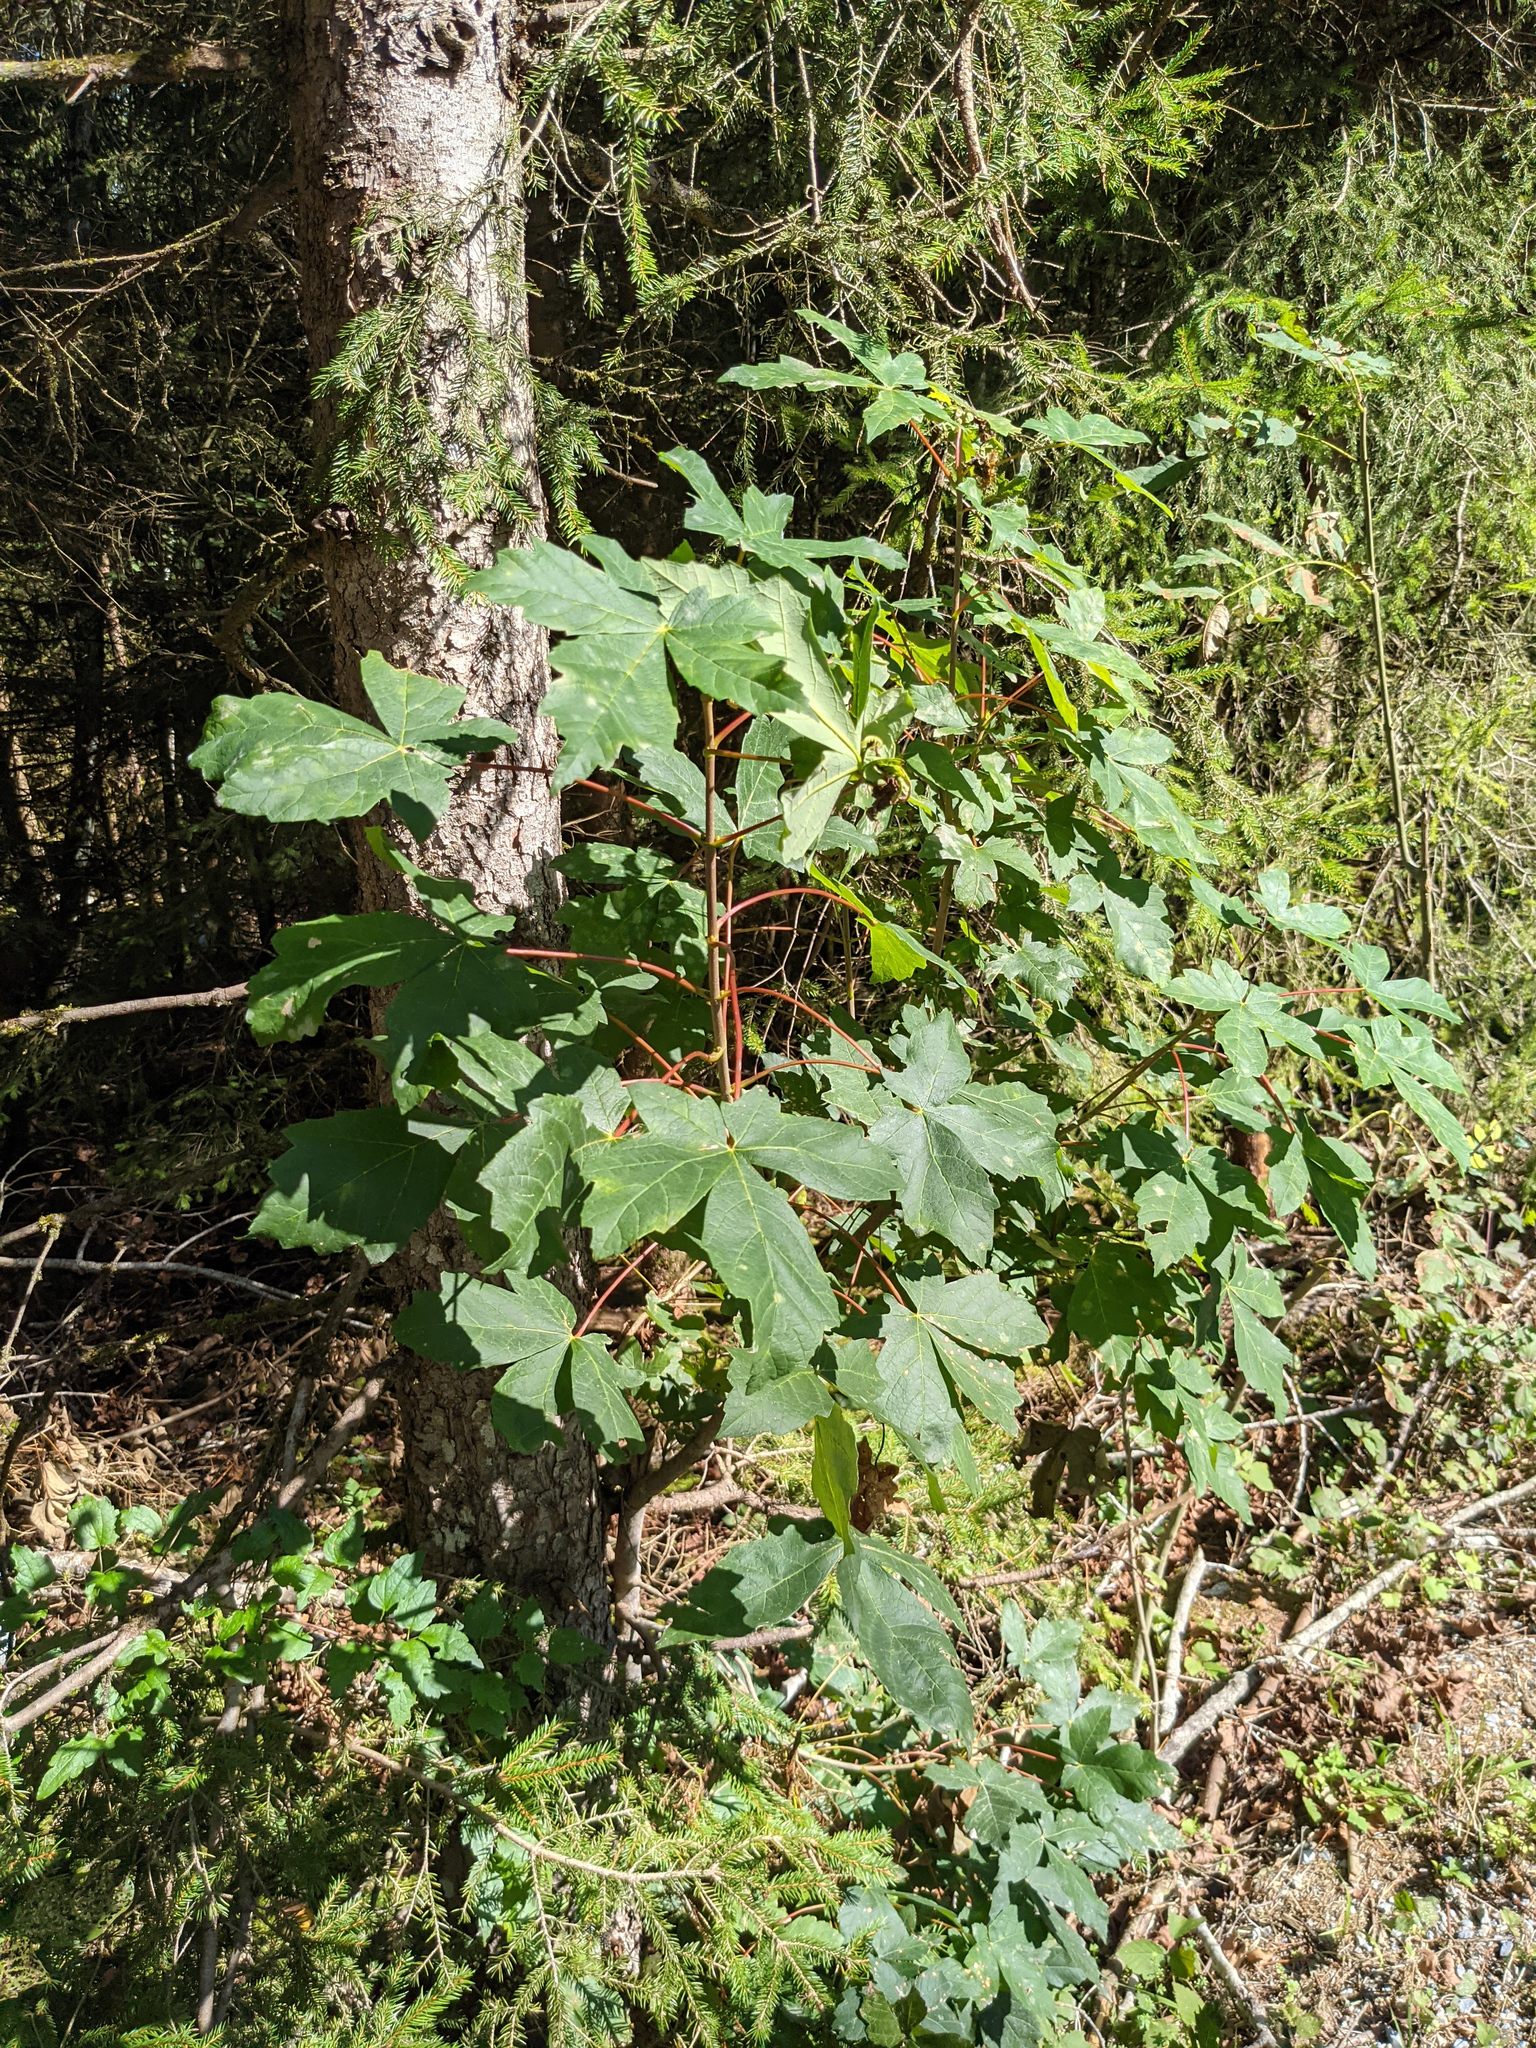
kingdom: Plantae
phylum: Tracheophyta
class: Magnoliopsida
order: Sapindales
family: Sapindaceae
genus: Acer
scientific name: Acer pseudoplatanus
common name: Sycamore
